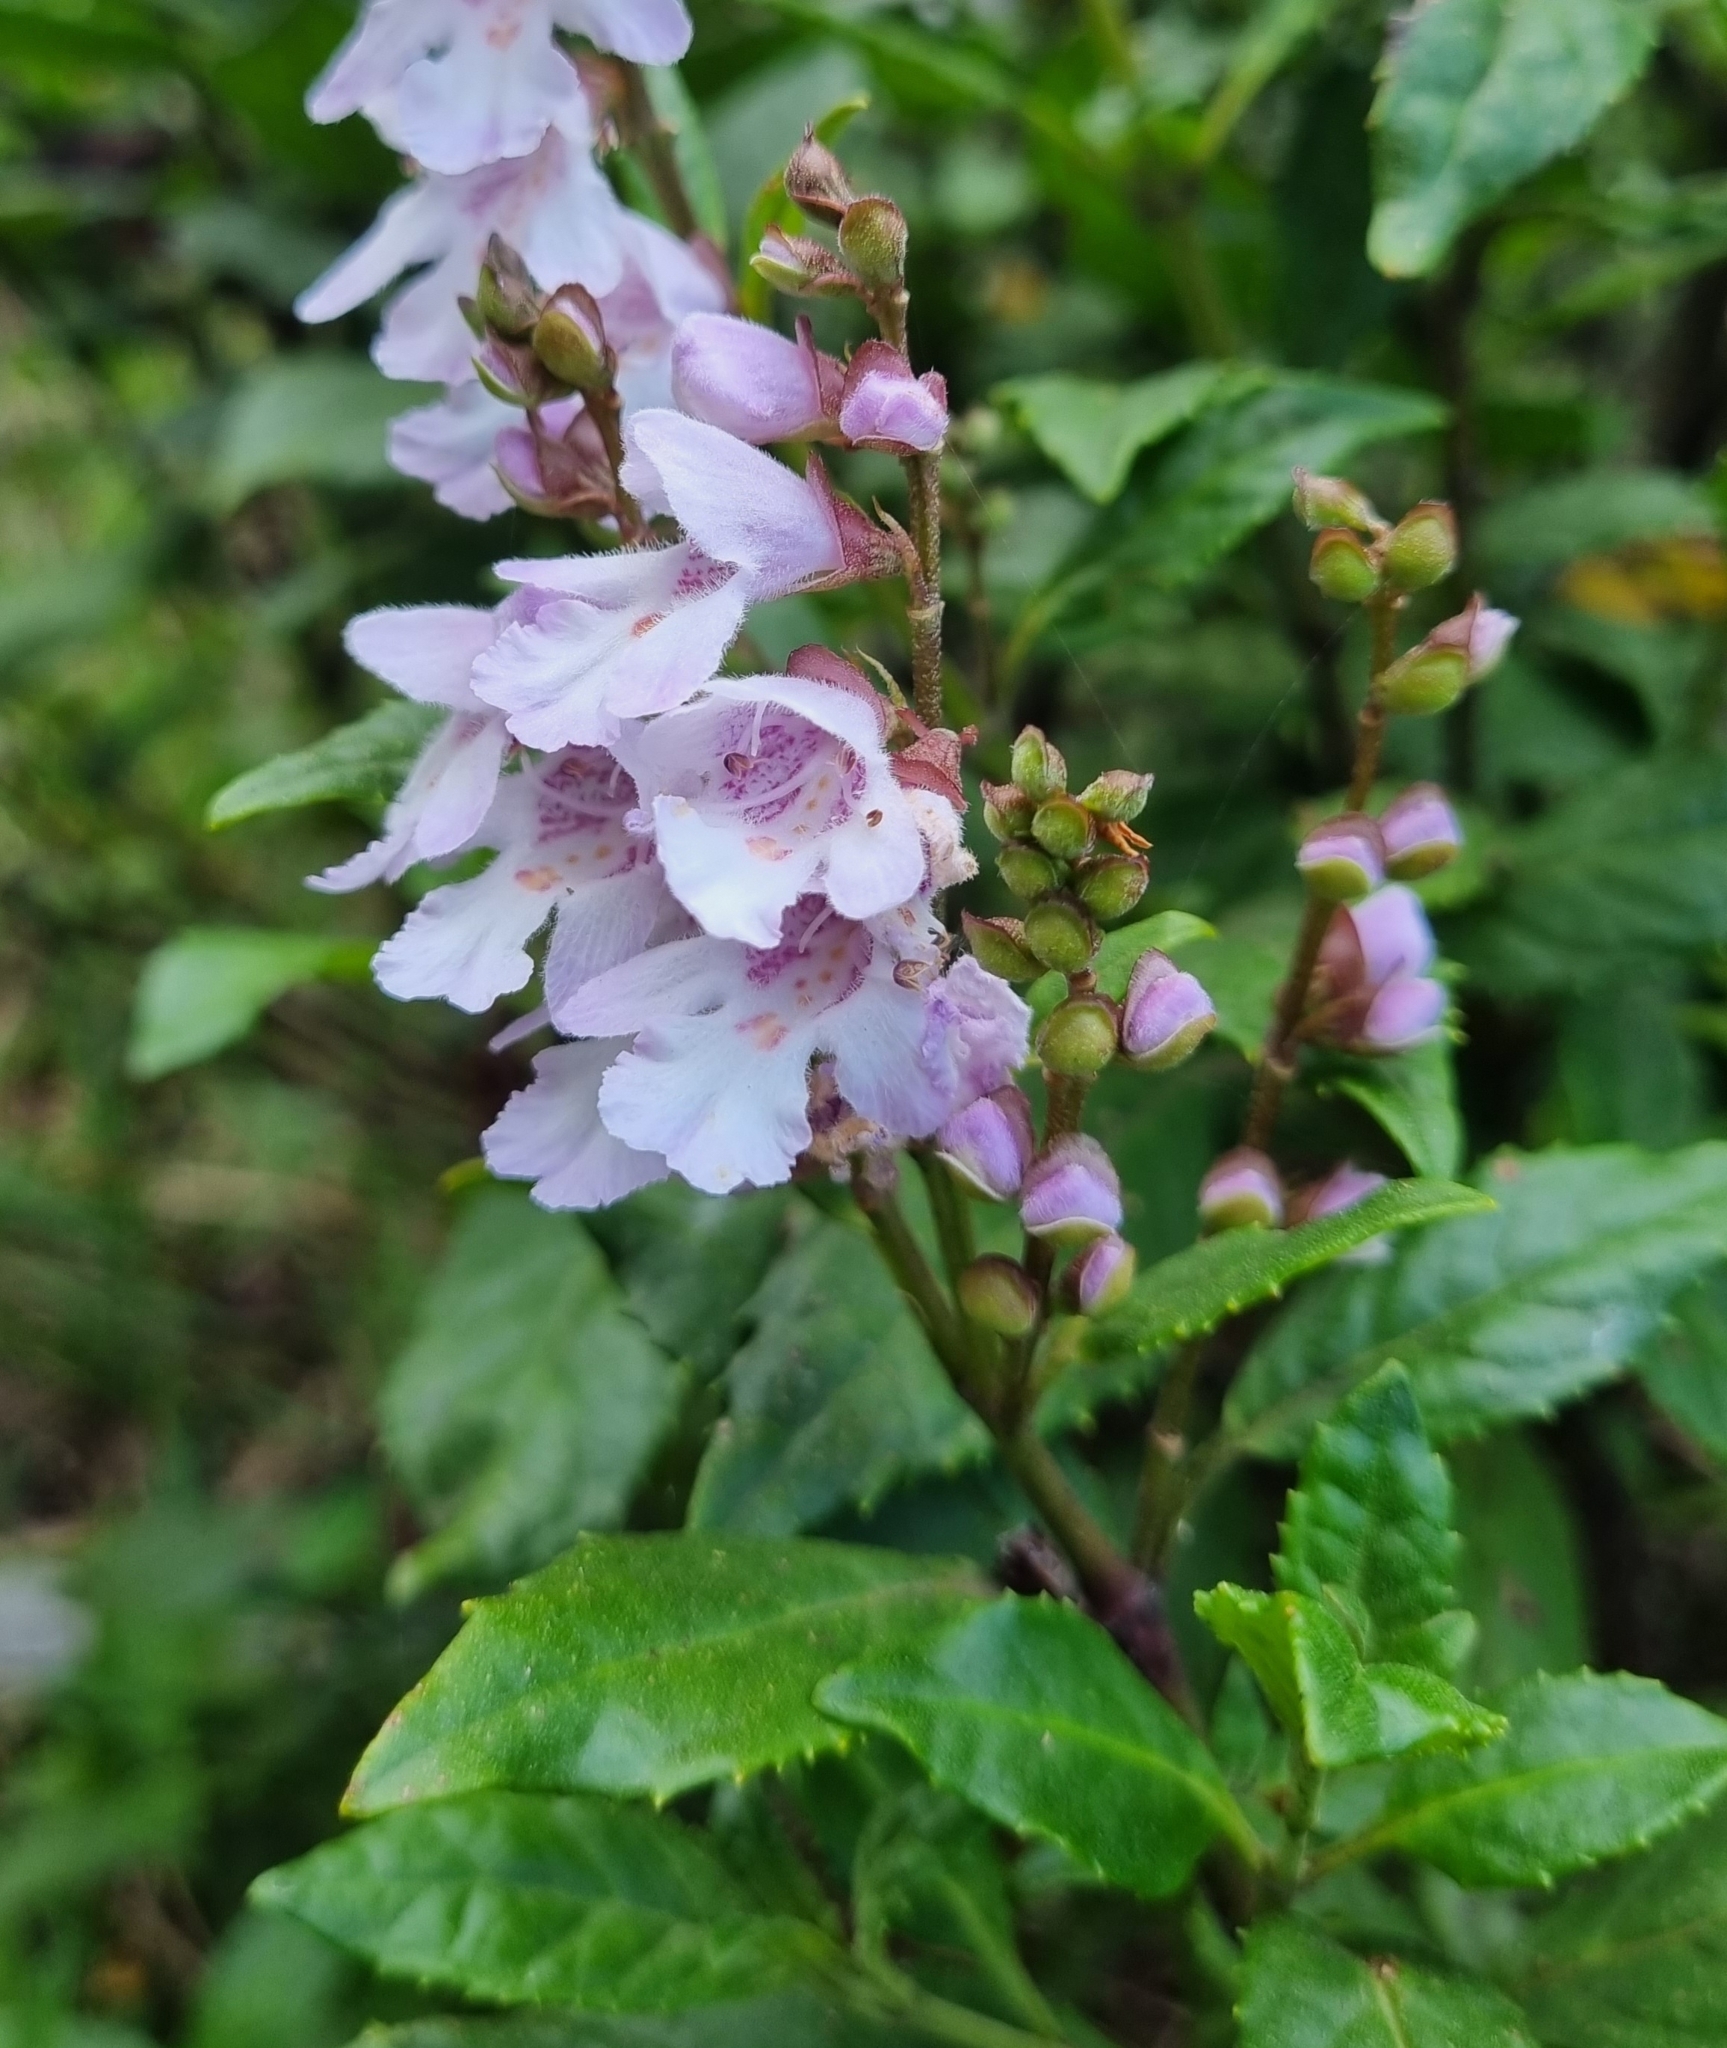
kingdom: Plantae
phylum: Tracheophyta
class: Magnoliopsida
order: Lamiales
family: Lamiaceae
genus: Prostanthera
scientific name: Prostanthera lasianthos
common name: Mountain-lilac
